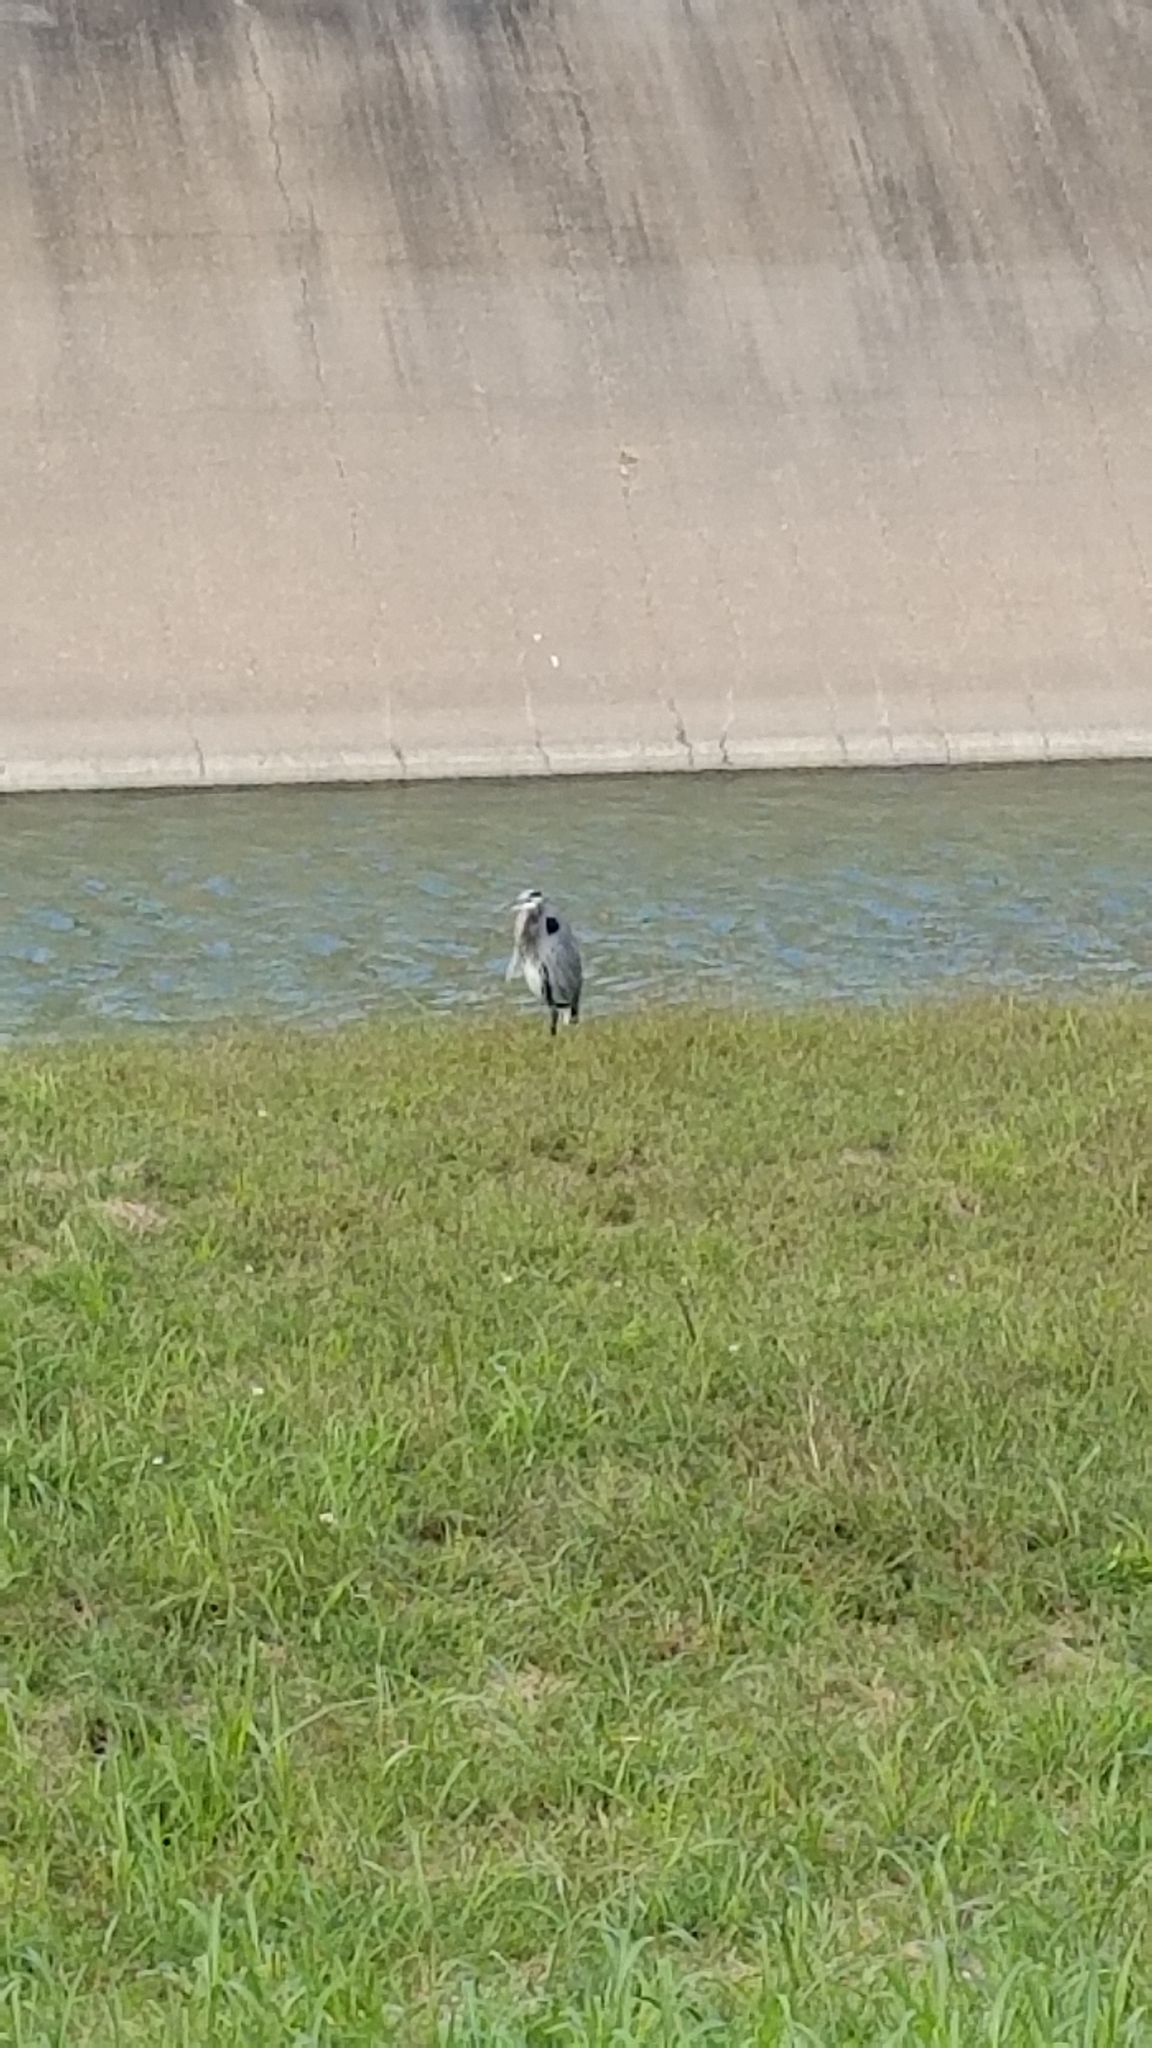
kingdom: Animalia
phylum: Chordata
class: Aves
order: Pelecaniformes
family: Ardeidae
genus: Ardea
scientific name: Ardea herodias
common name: Great blue heron
